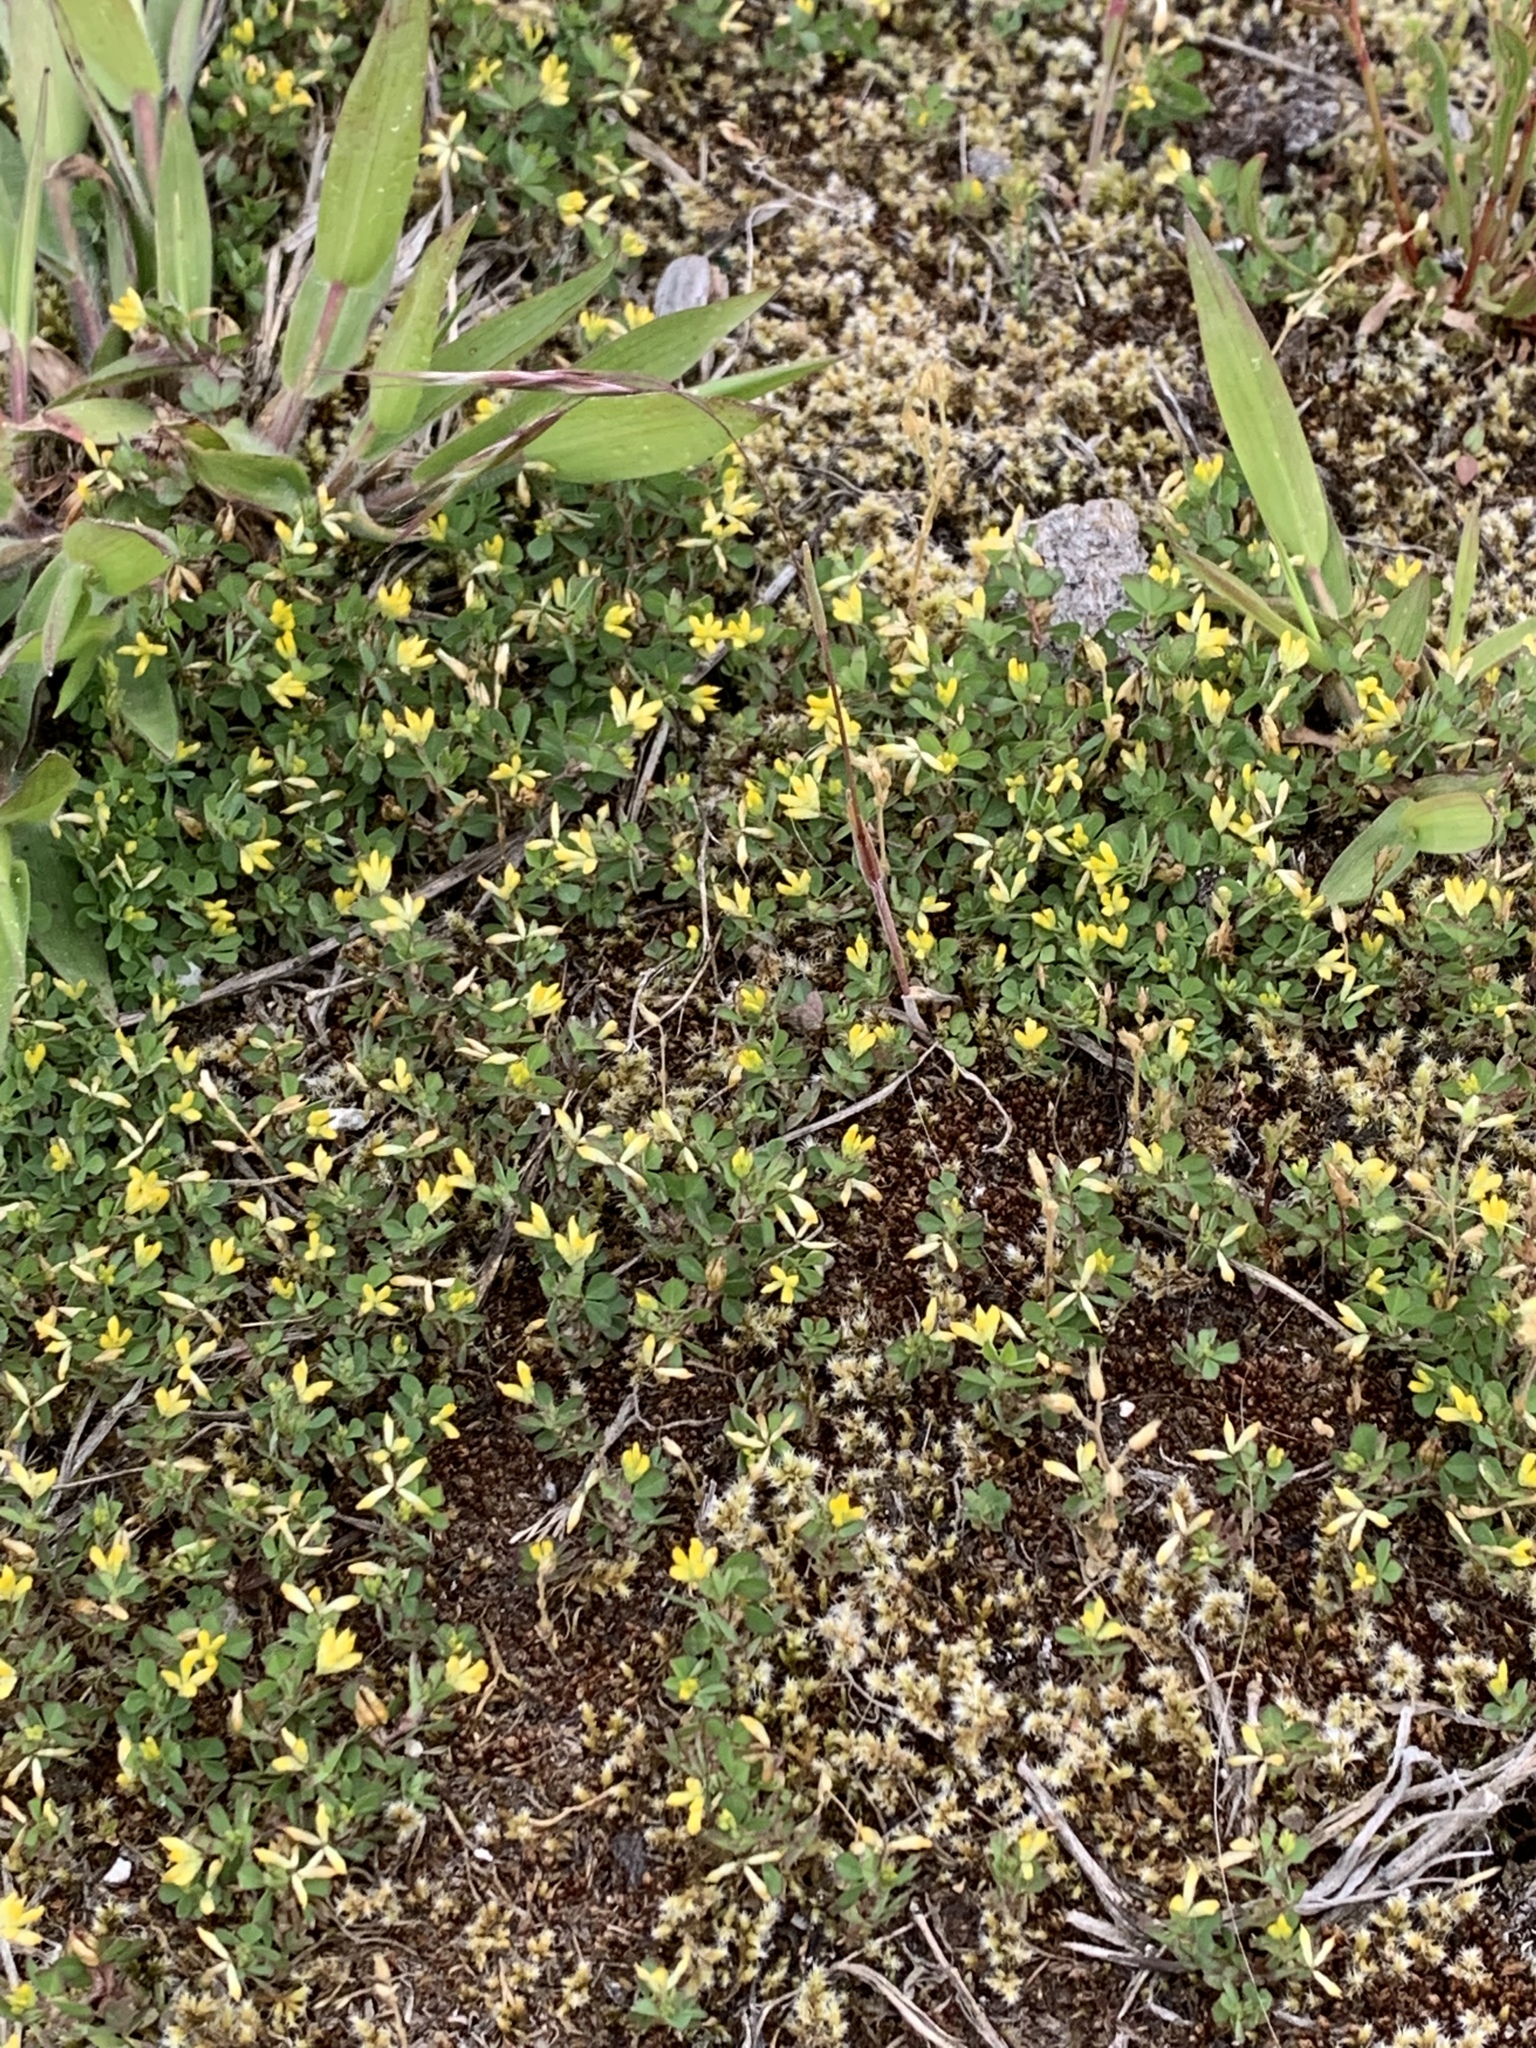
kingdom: Plantae
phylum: Tracheophyta
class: Magnoliopsida
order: Fabales
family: Fabaceae
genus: Trifolium
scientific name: Trifolium dubium
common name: Suckling clover
